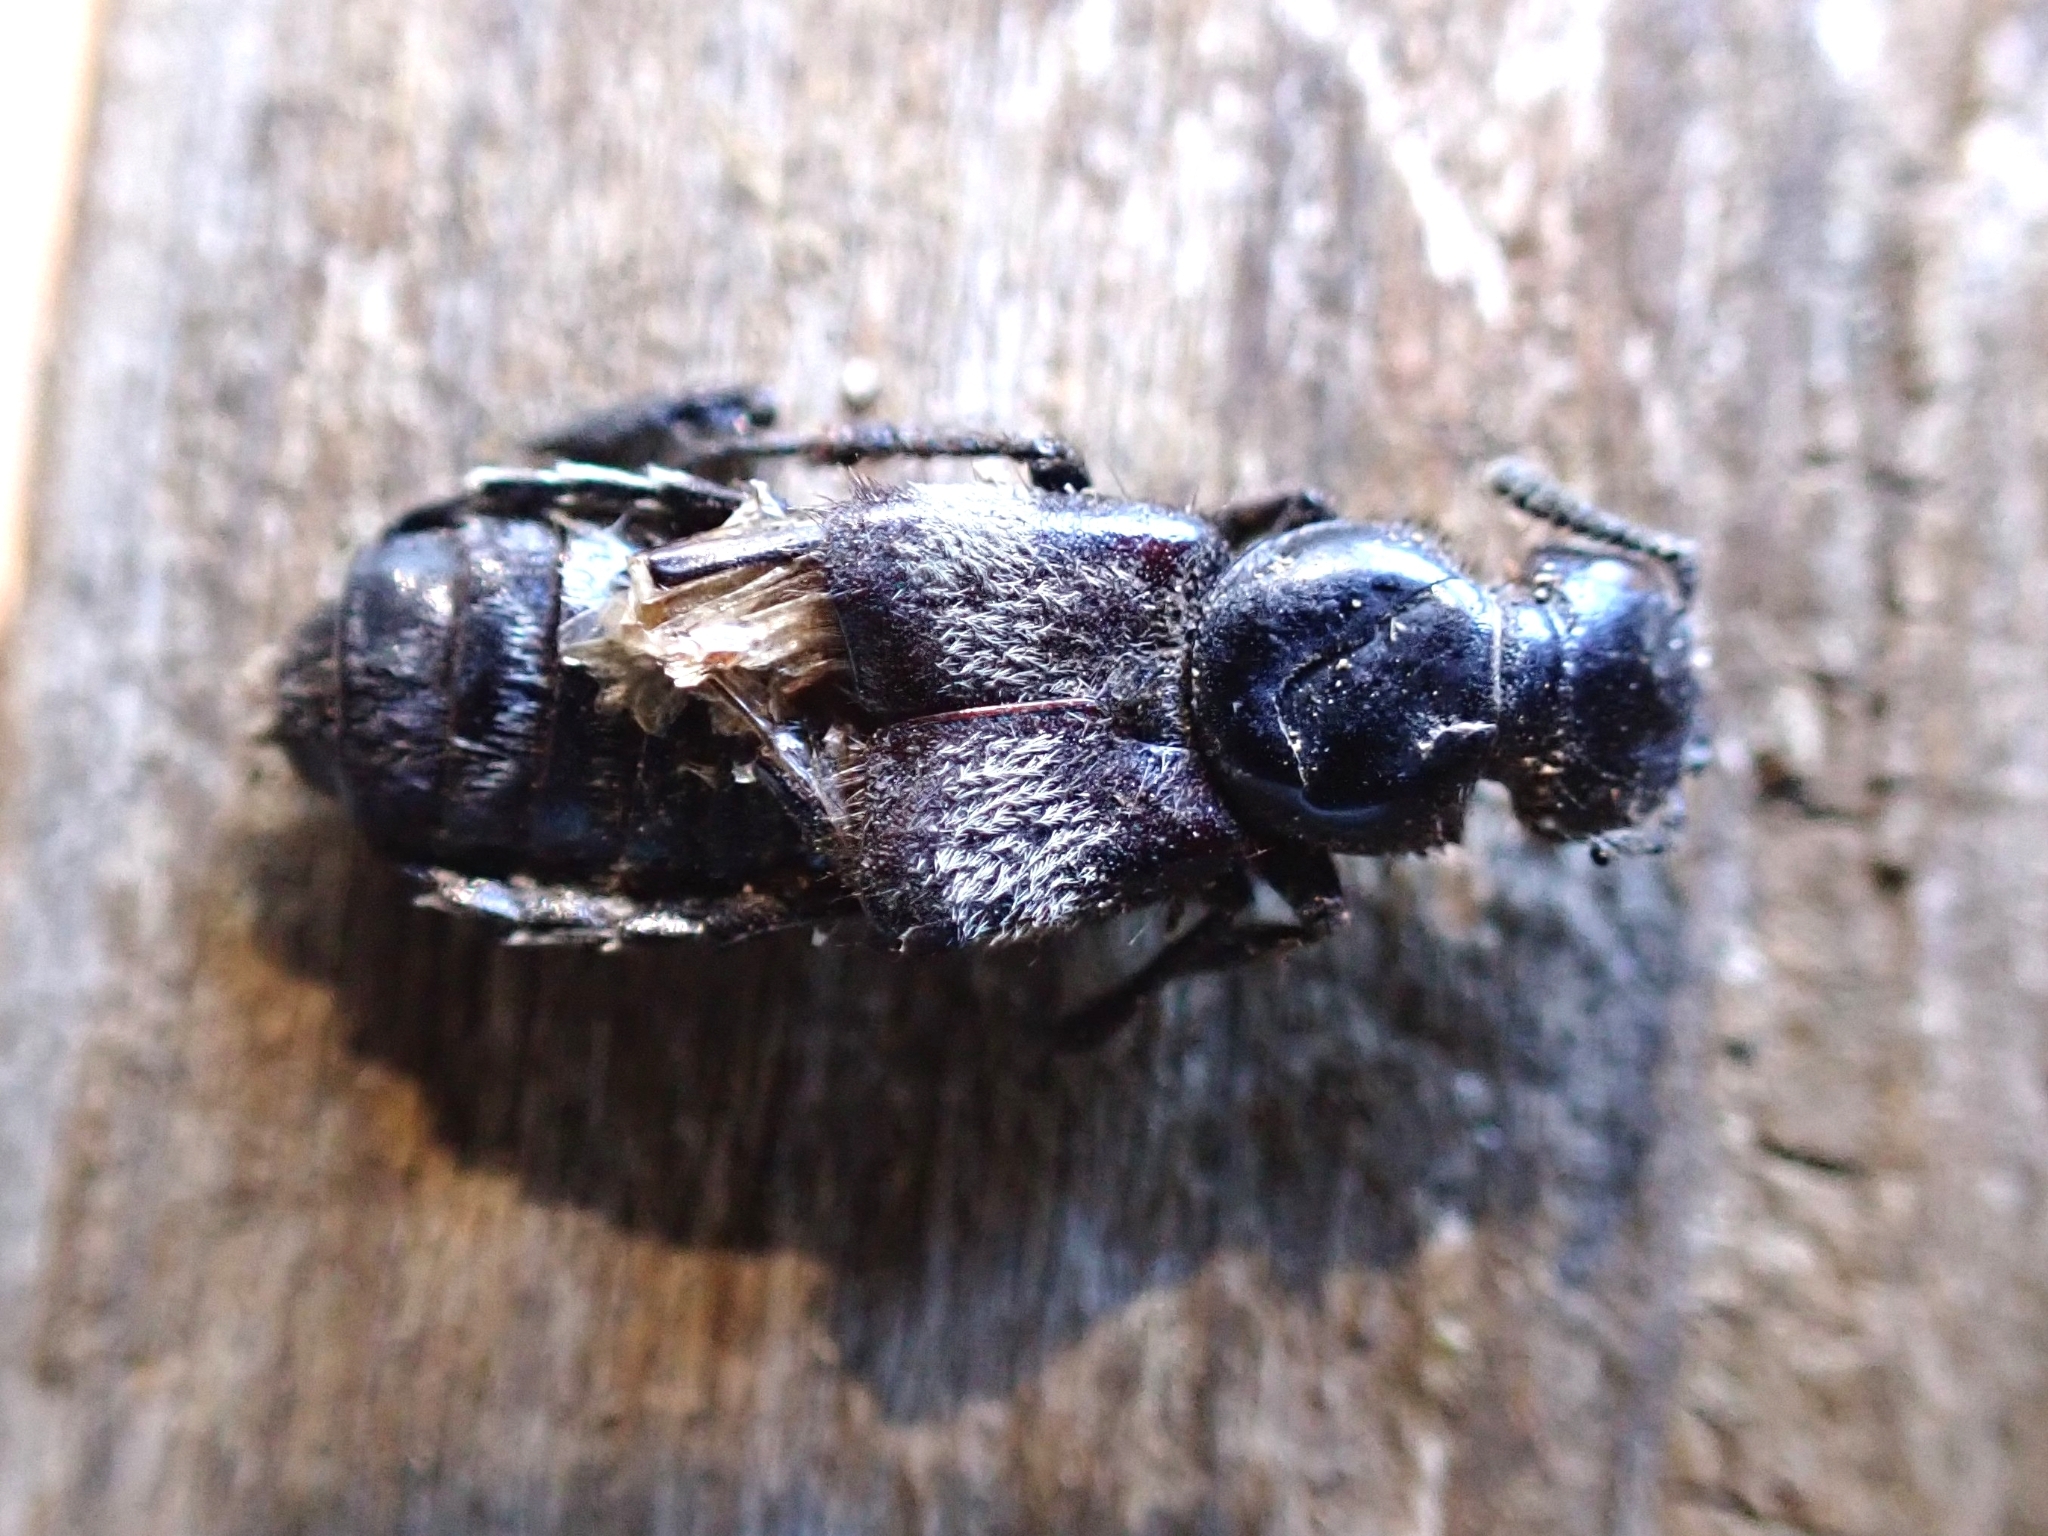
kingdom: Animalia
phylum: Arthropoda
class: Insecta
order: Coleoptera
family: Staphylinidae
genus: Creophilus
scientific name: Creophilus maxillosus
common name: Hairy rove beetle
